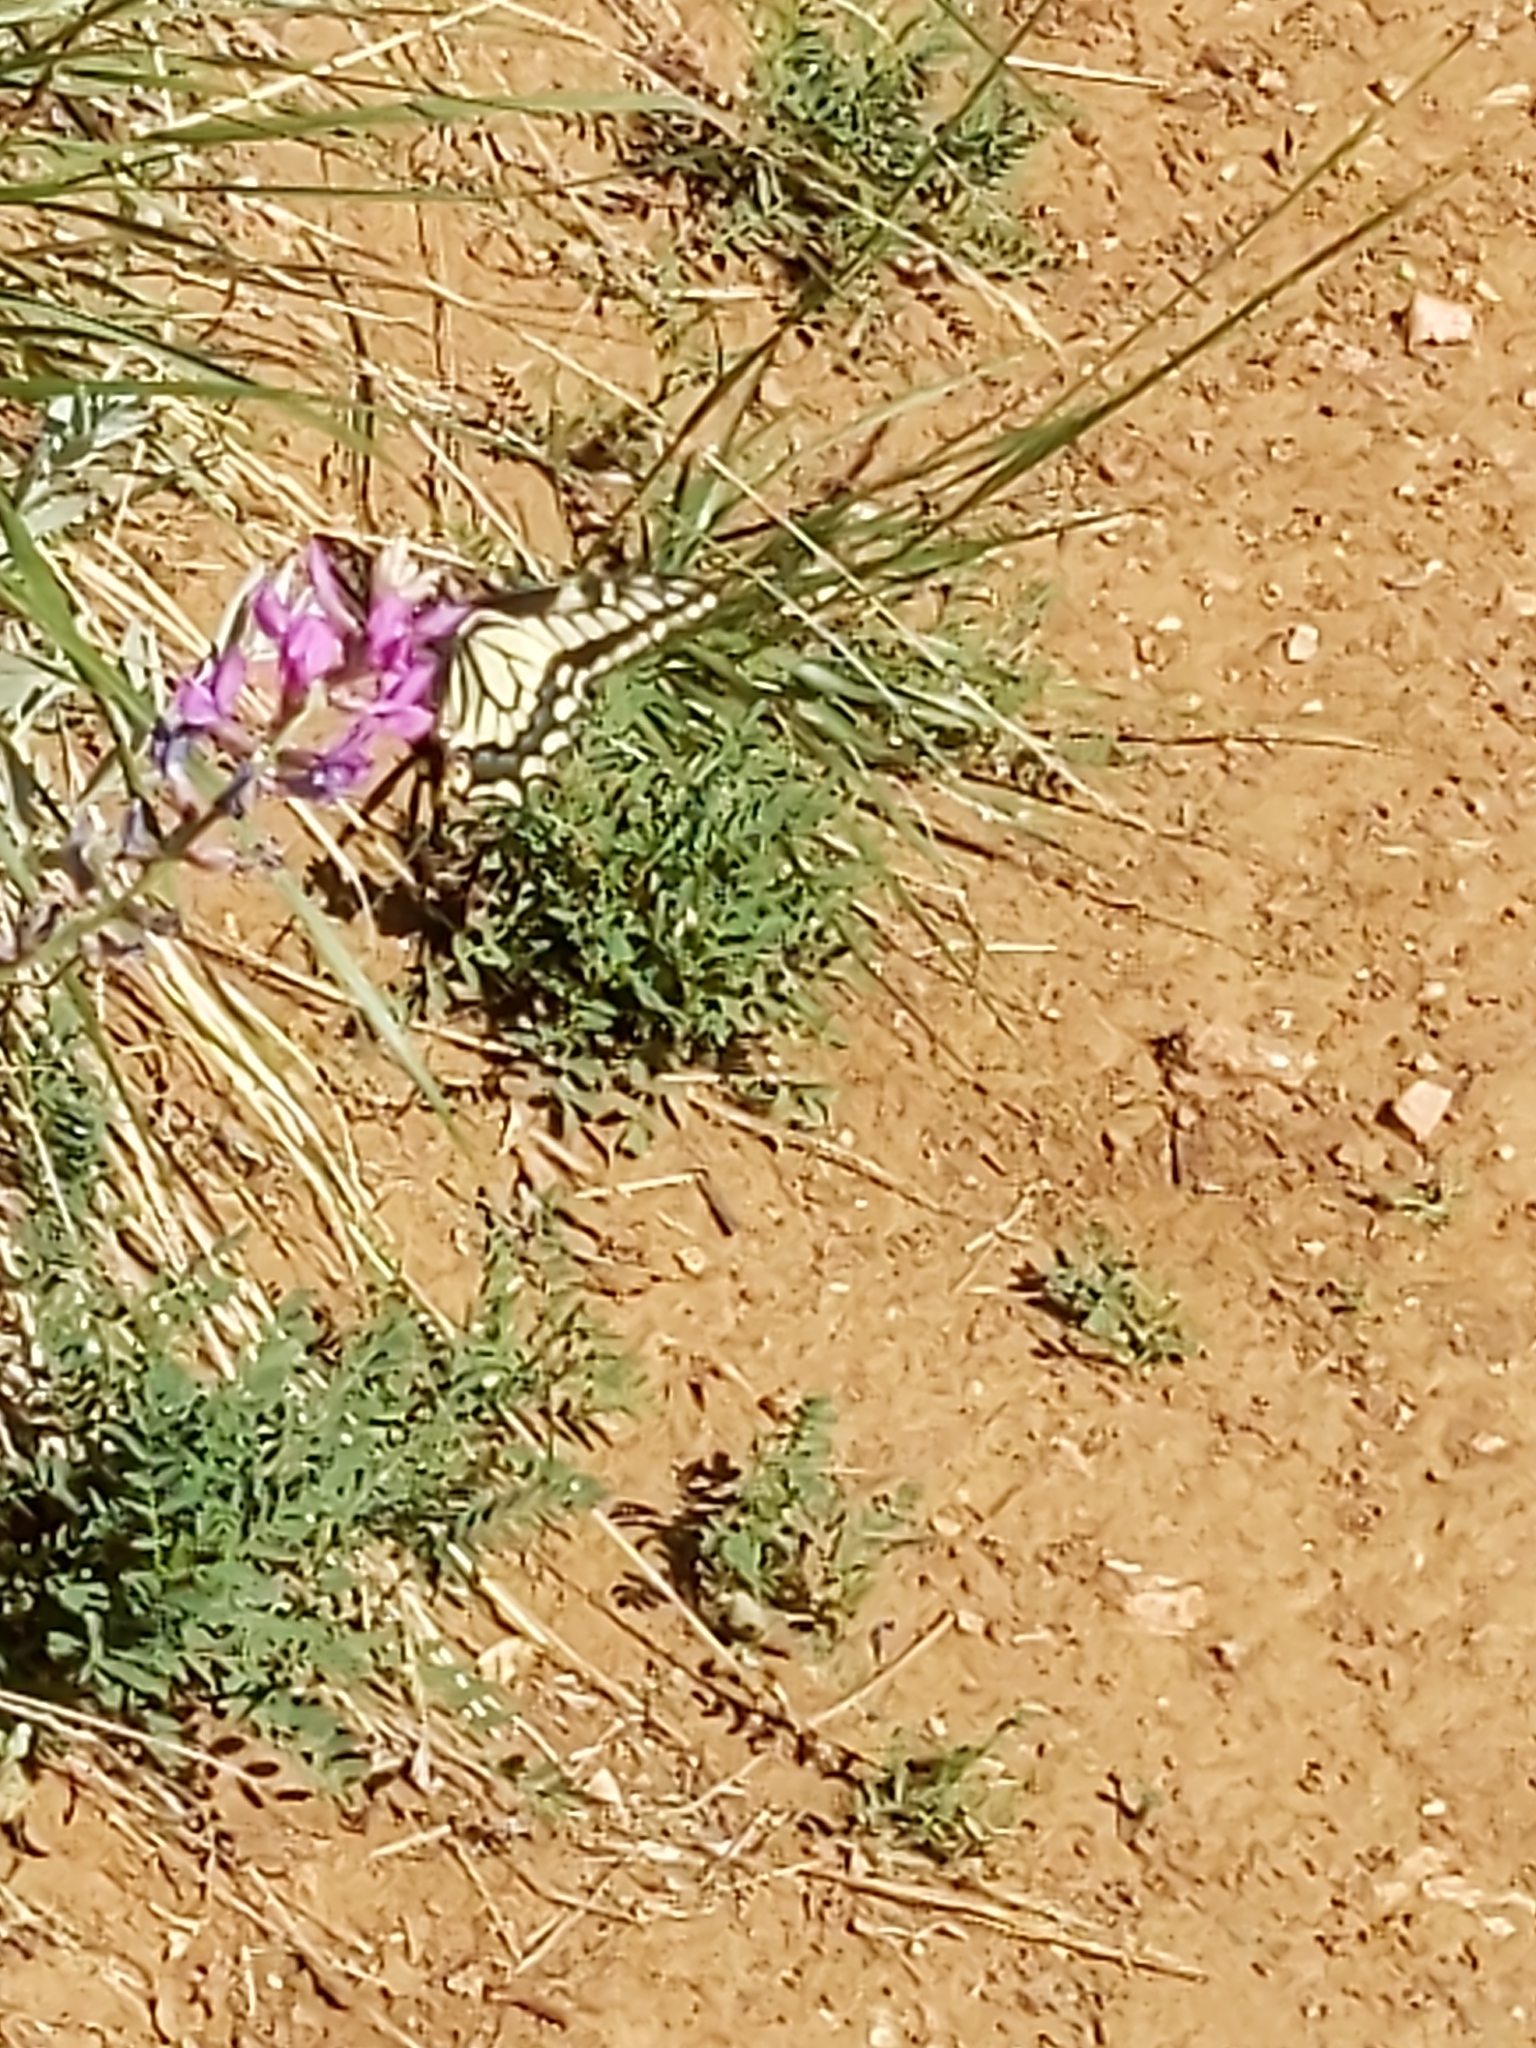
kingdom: Animalia
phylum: Arthropoda
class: Insecta
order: Lepidoptera
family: Papilionidae
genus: Papilio
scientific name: Papilio zelicaon
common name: Anise swallowtail
